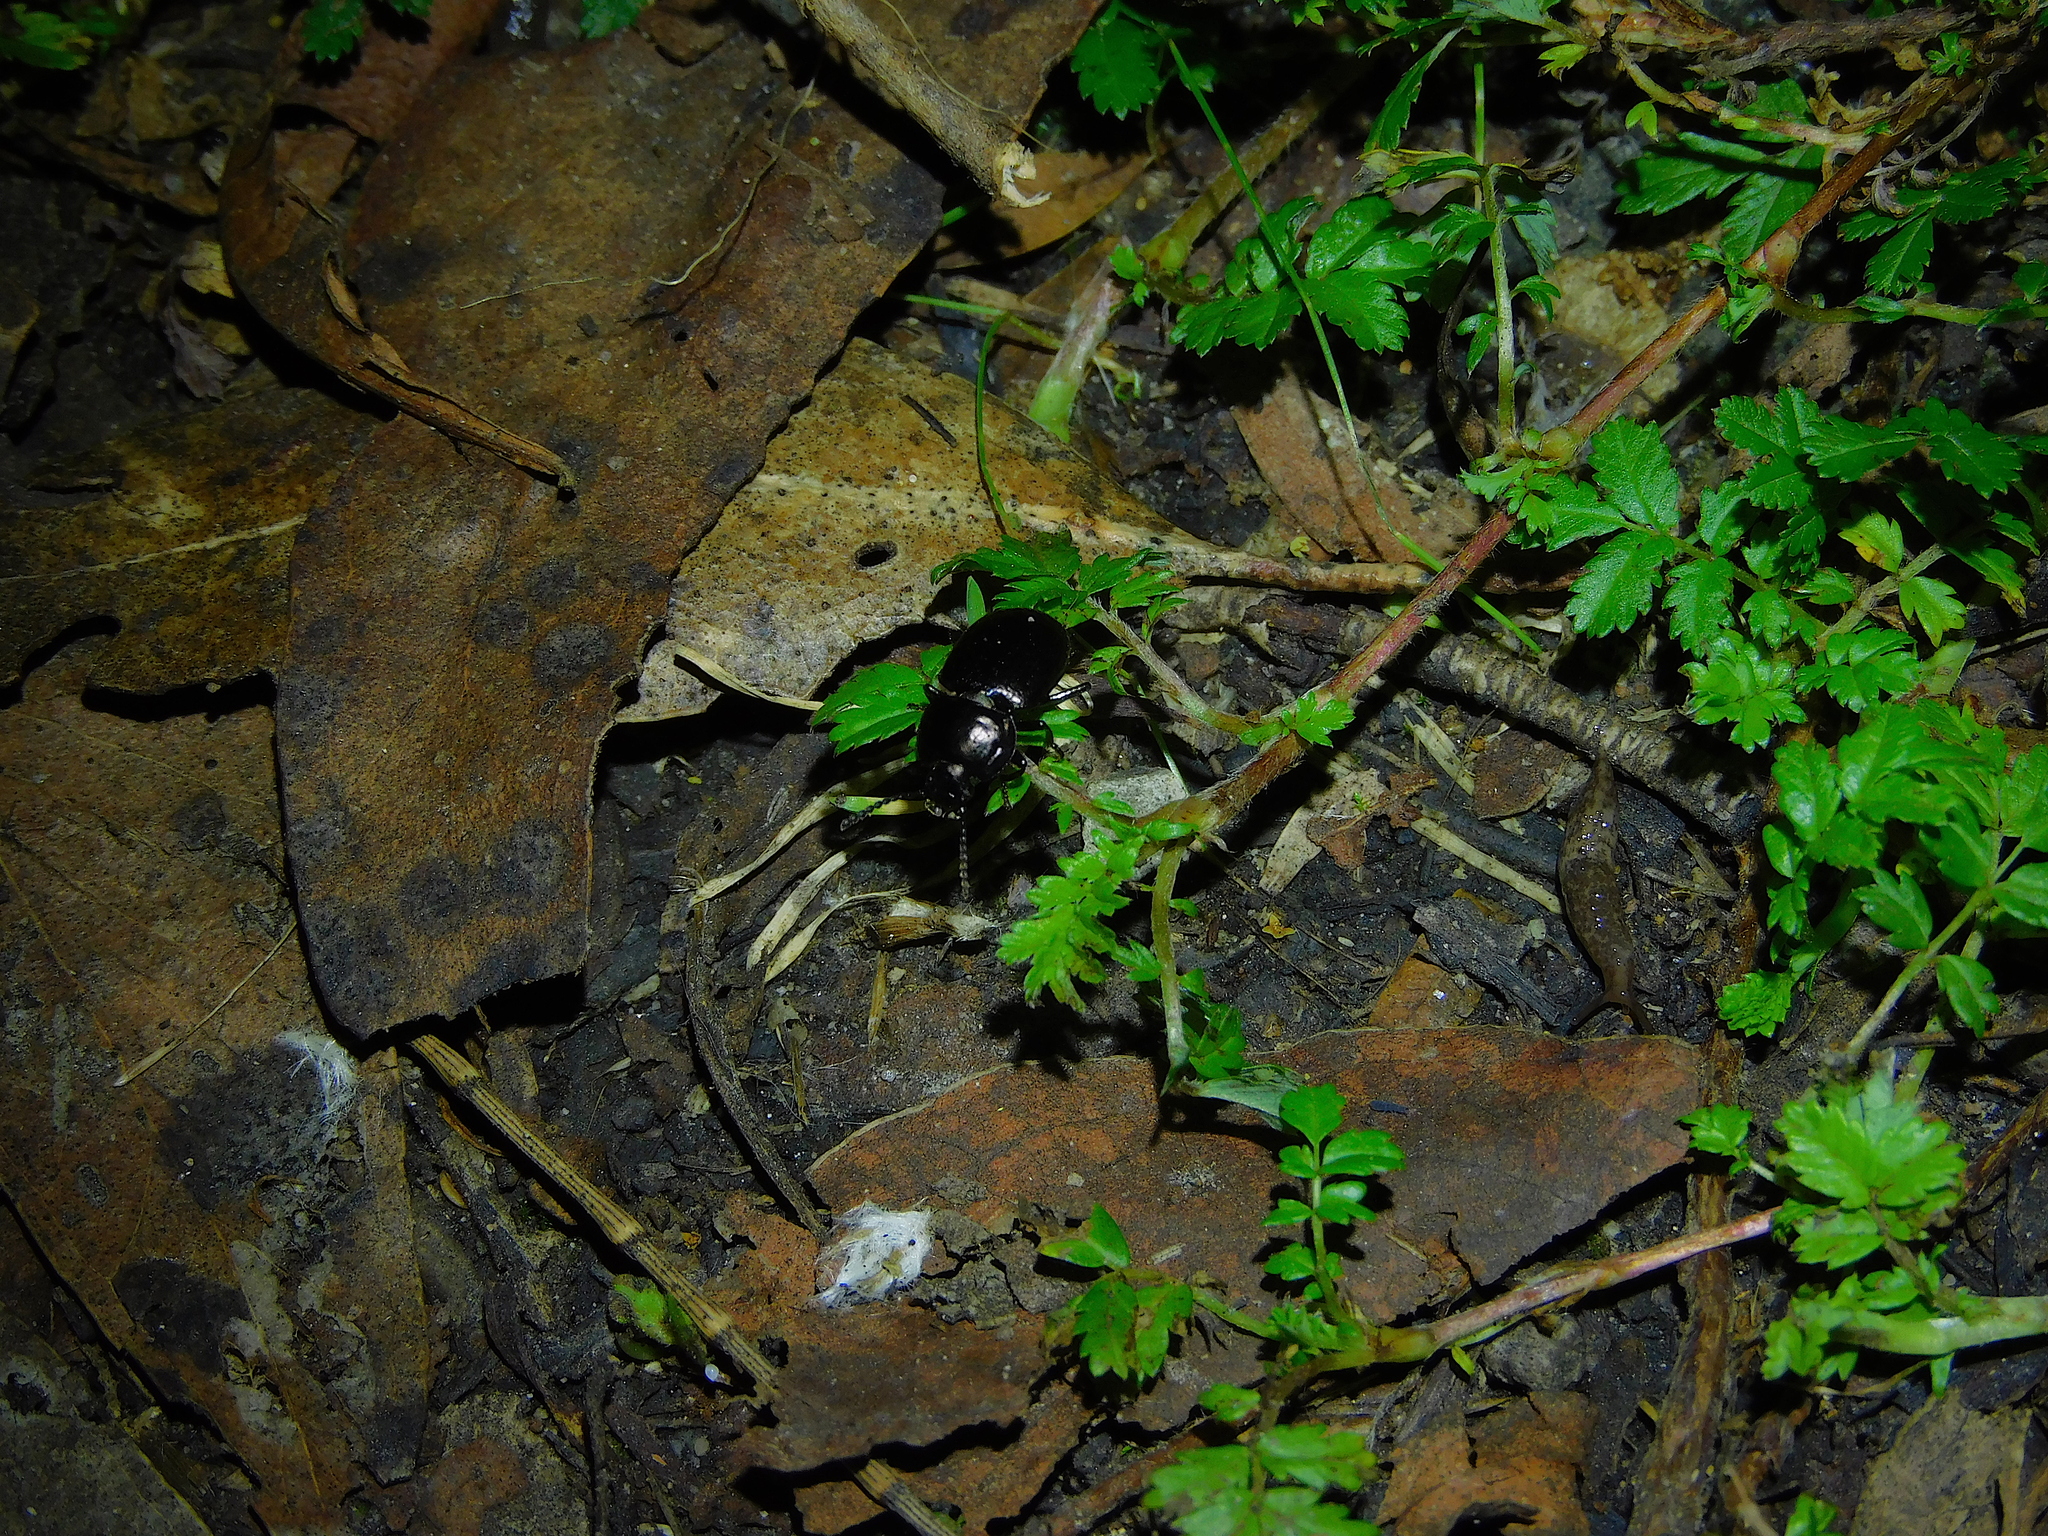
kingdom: Animalia
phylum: Arthropoda
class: Insecta
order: Coleoptera
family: Tenebrionidae
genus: Adelium
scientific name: Adelium abbreviatum
